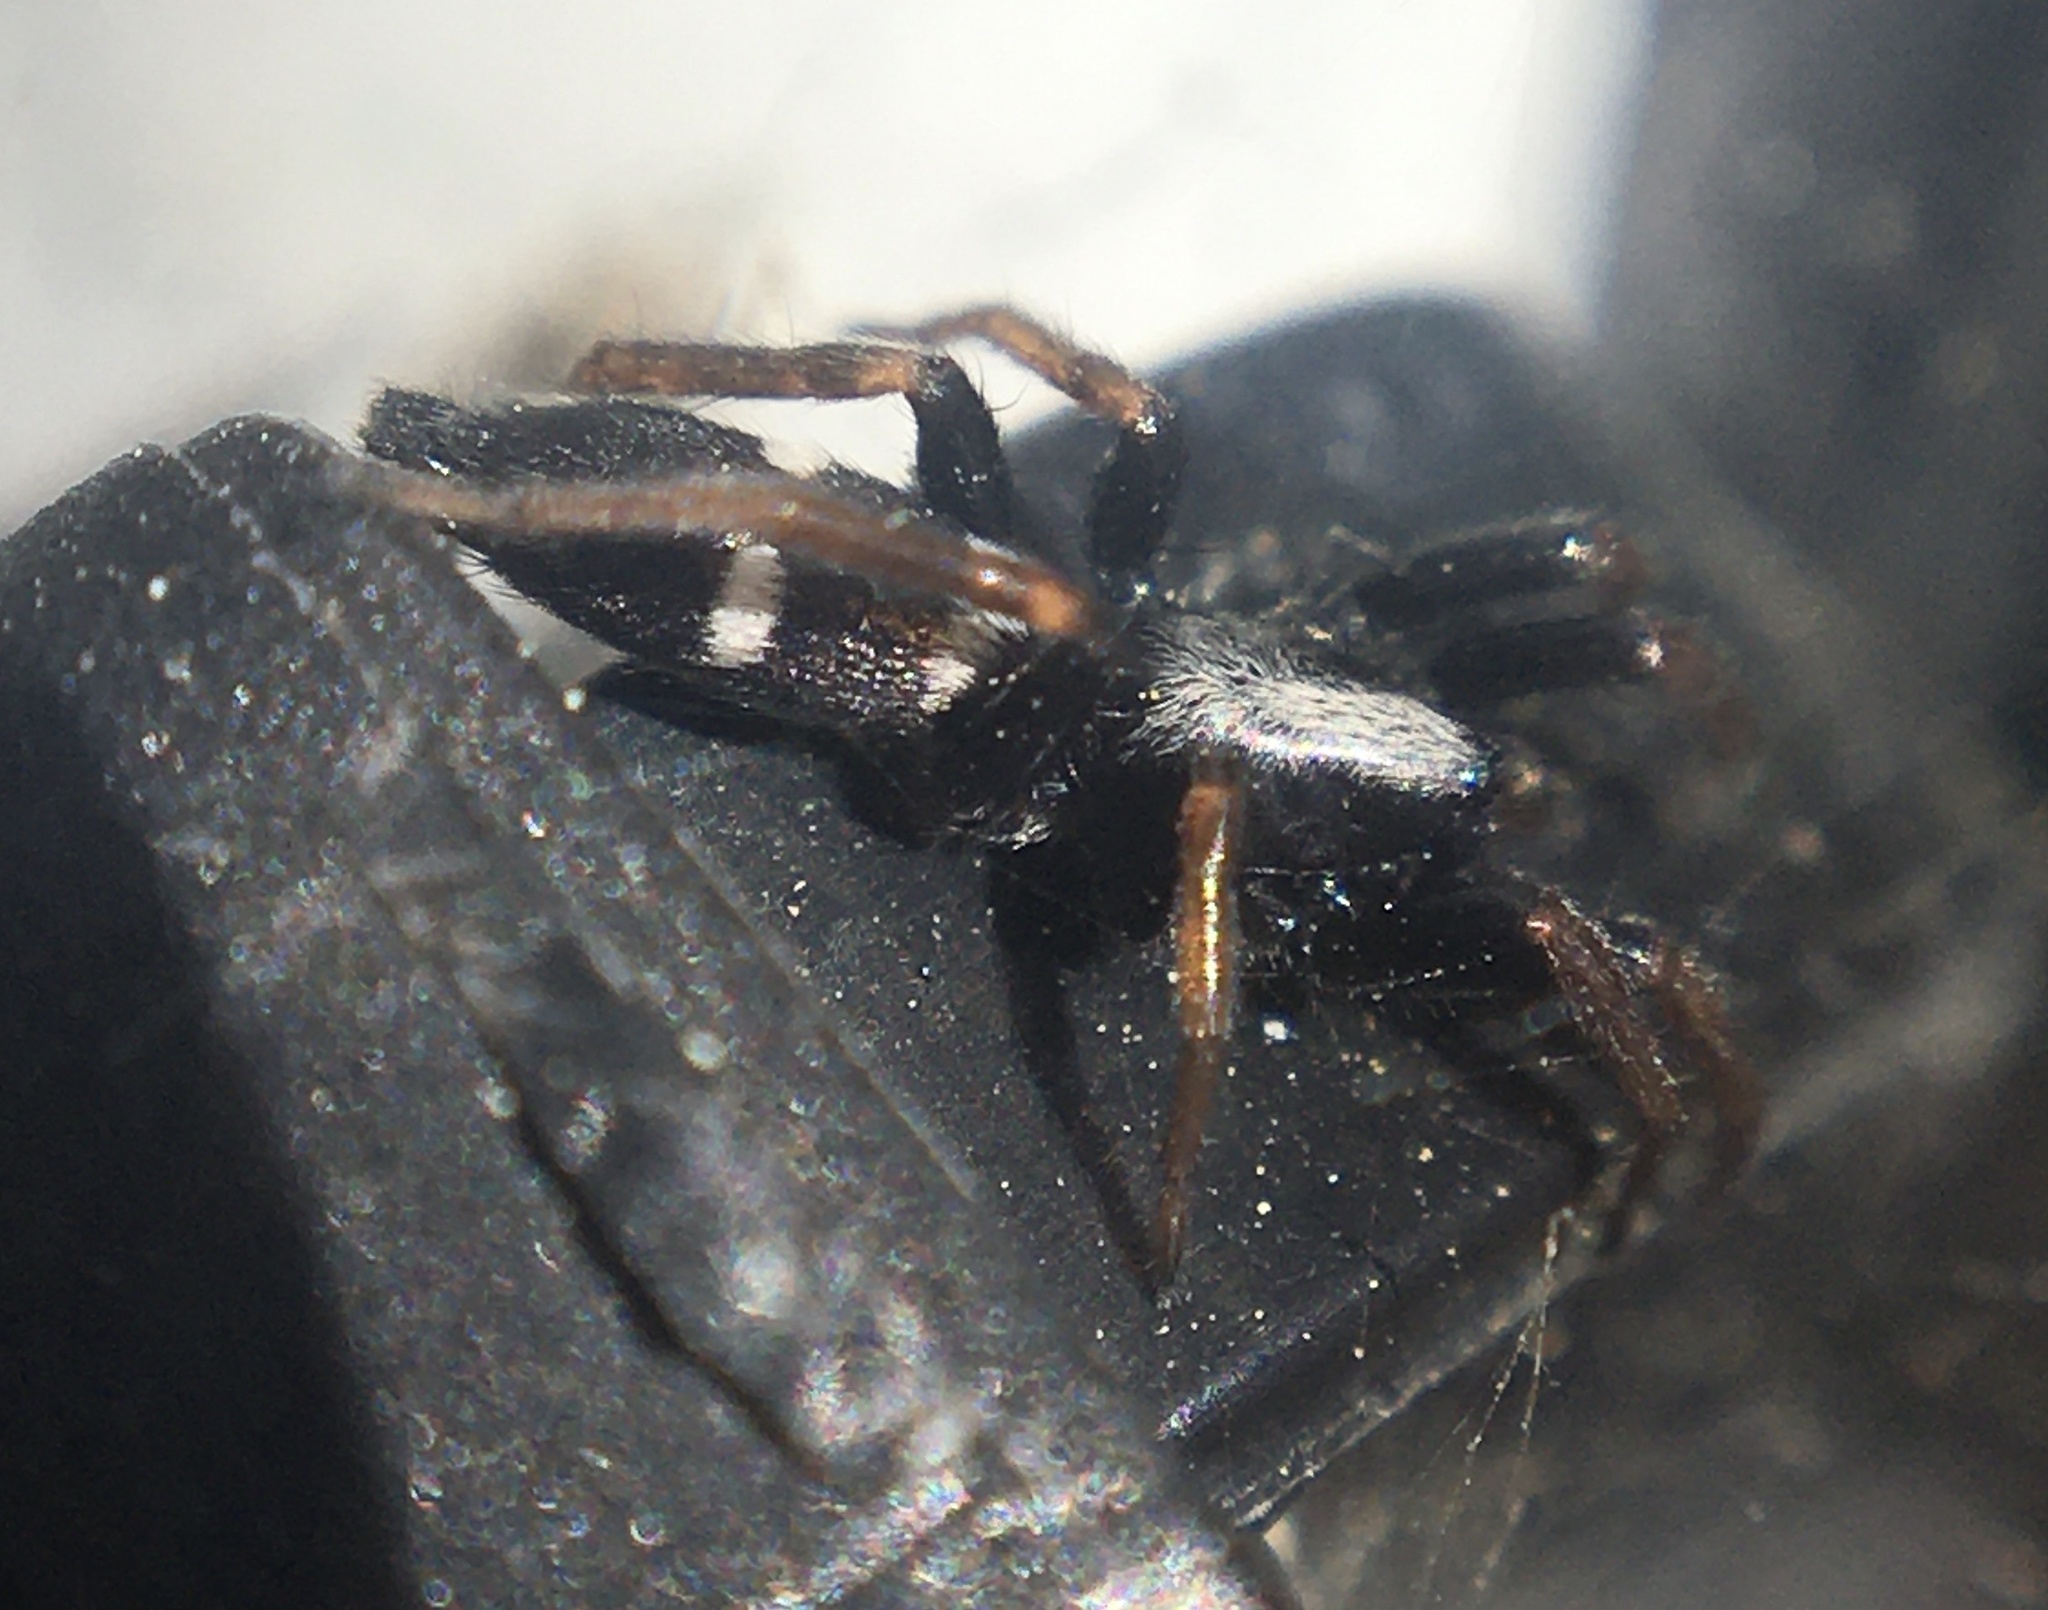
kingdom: Animalia
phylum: Arthropoda
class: Arachnida
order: Araneae
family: Gnaphosidae
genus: Aphantaulax
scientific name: Aphantaulax
